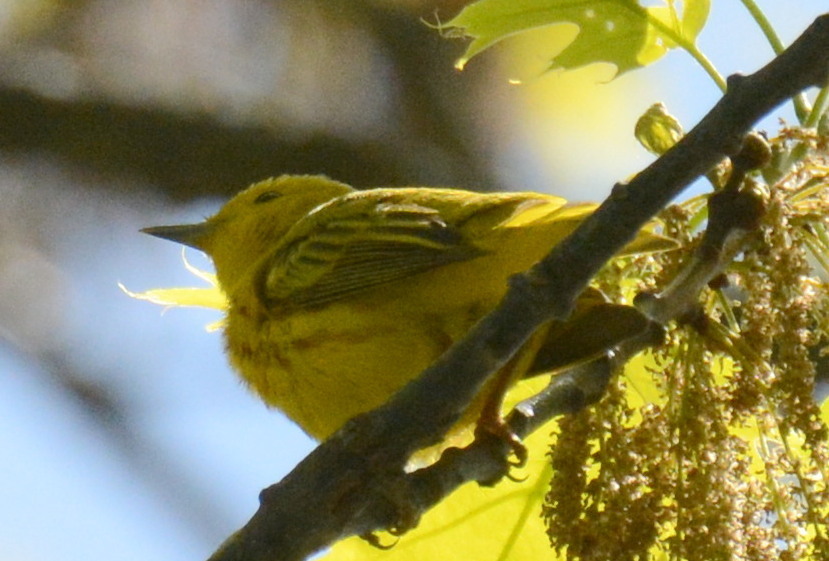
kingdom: Animalia
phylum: Chordata
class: Aves
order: Passeriformes
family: Parulidae
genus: Setophaga
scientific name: Setophaga petechia
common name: Yellow warbler
